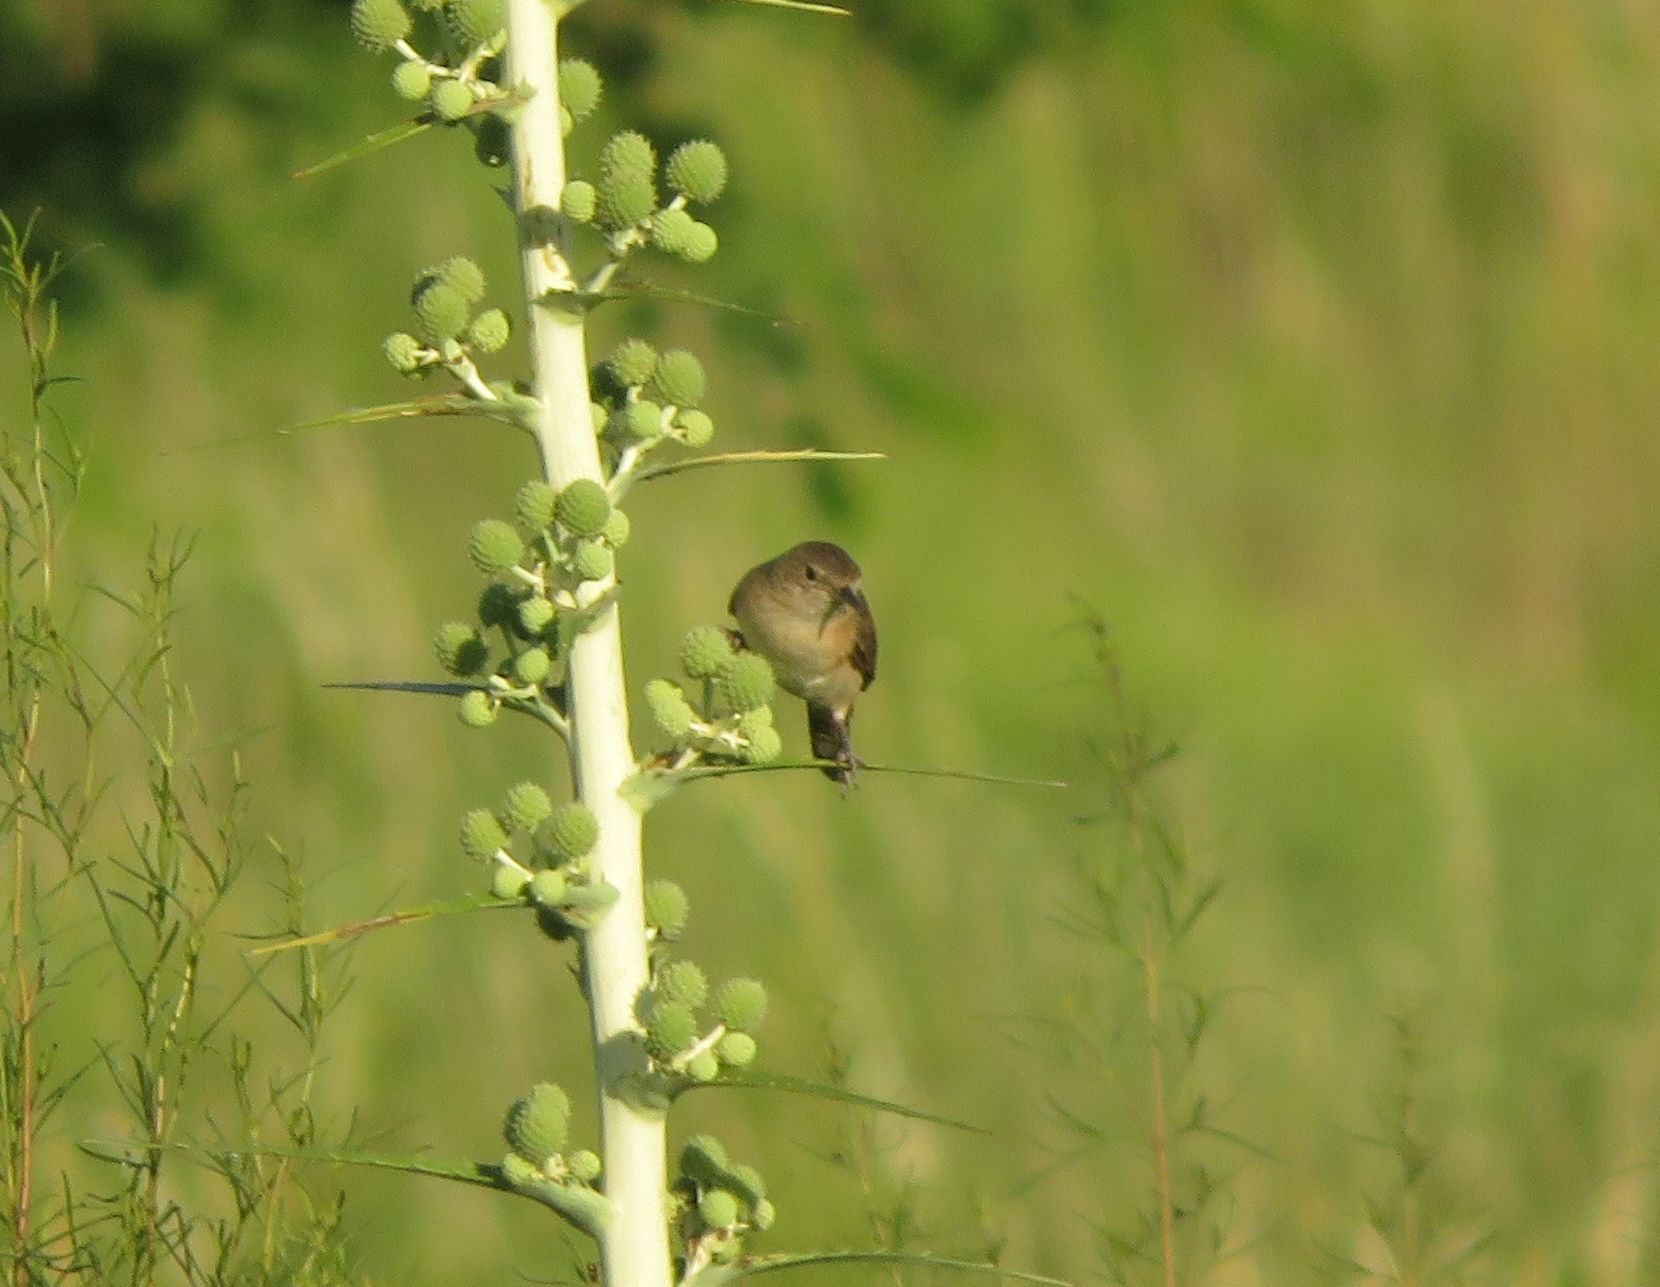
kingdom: Animalia
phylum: Chordata
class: Aves
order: Passeriformes
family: Troglodytidae
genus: Troglodytes
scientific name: Troglodytes aedon
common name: House wren
